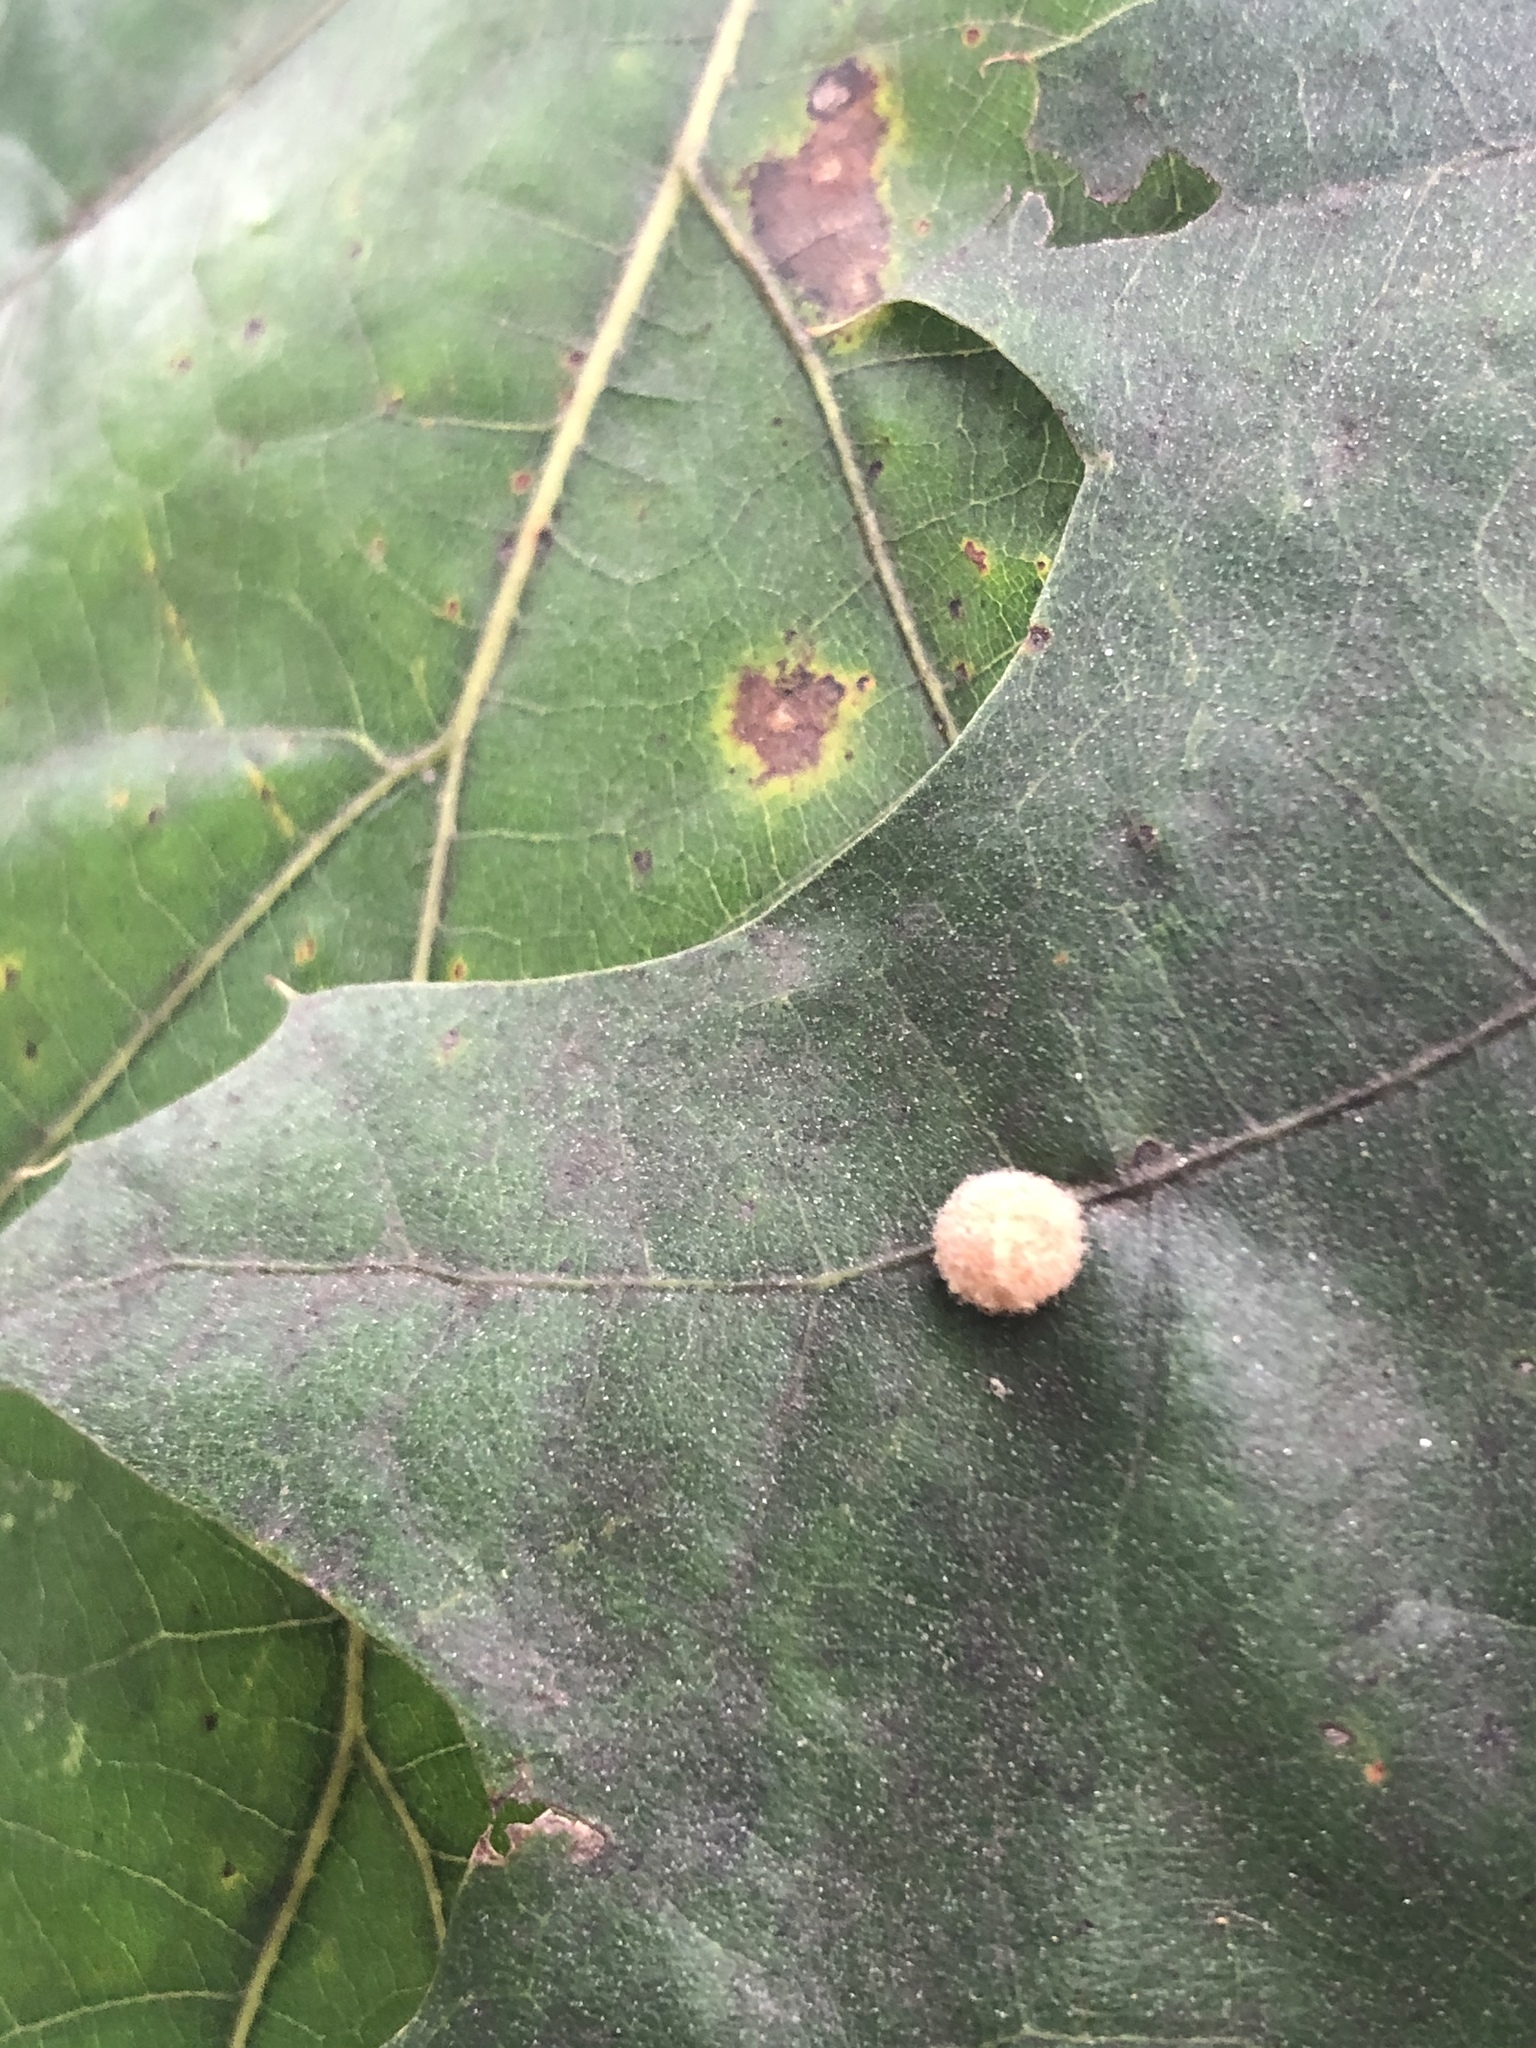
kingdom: Animalia
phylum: Arthropoda
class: Insecta
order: Hymenoptera
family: Cynipidae
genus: Callirhytis
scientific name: Callirhytis
